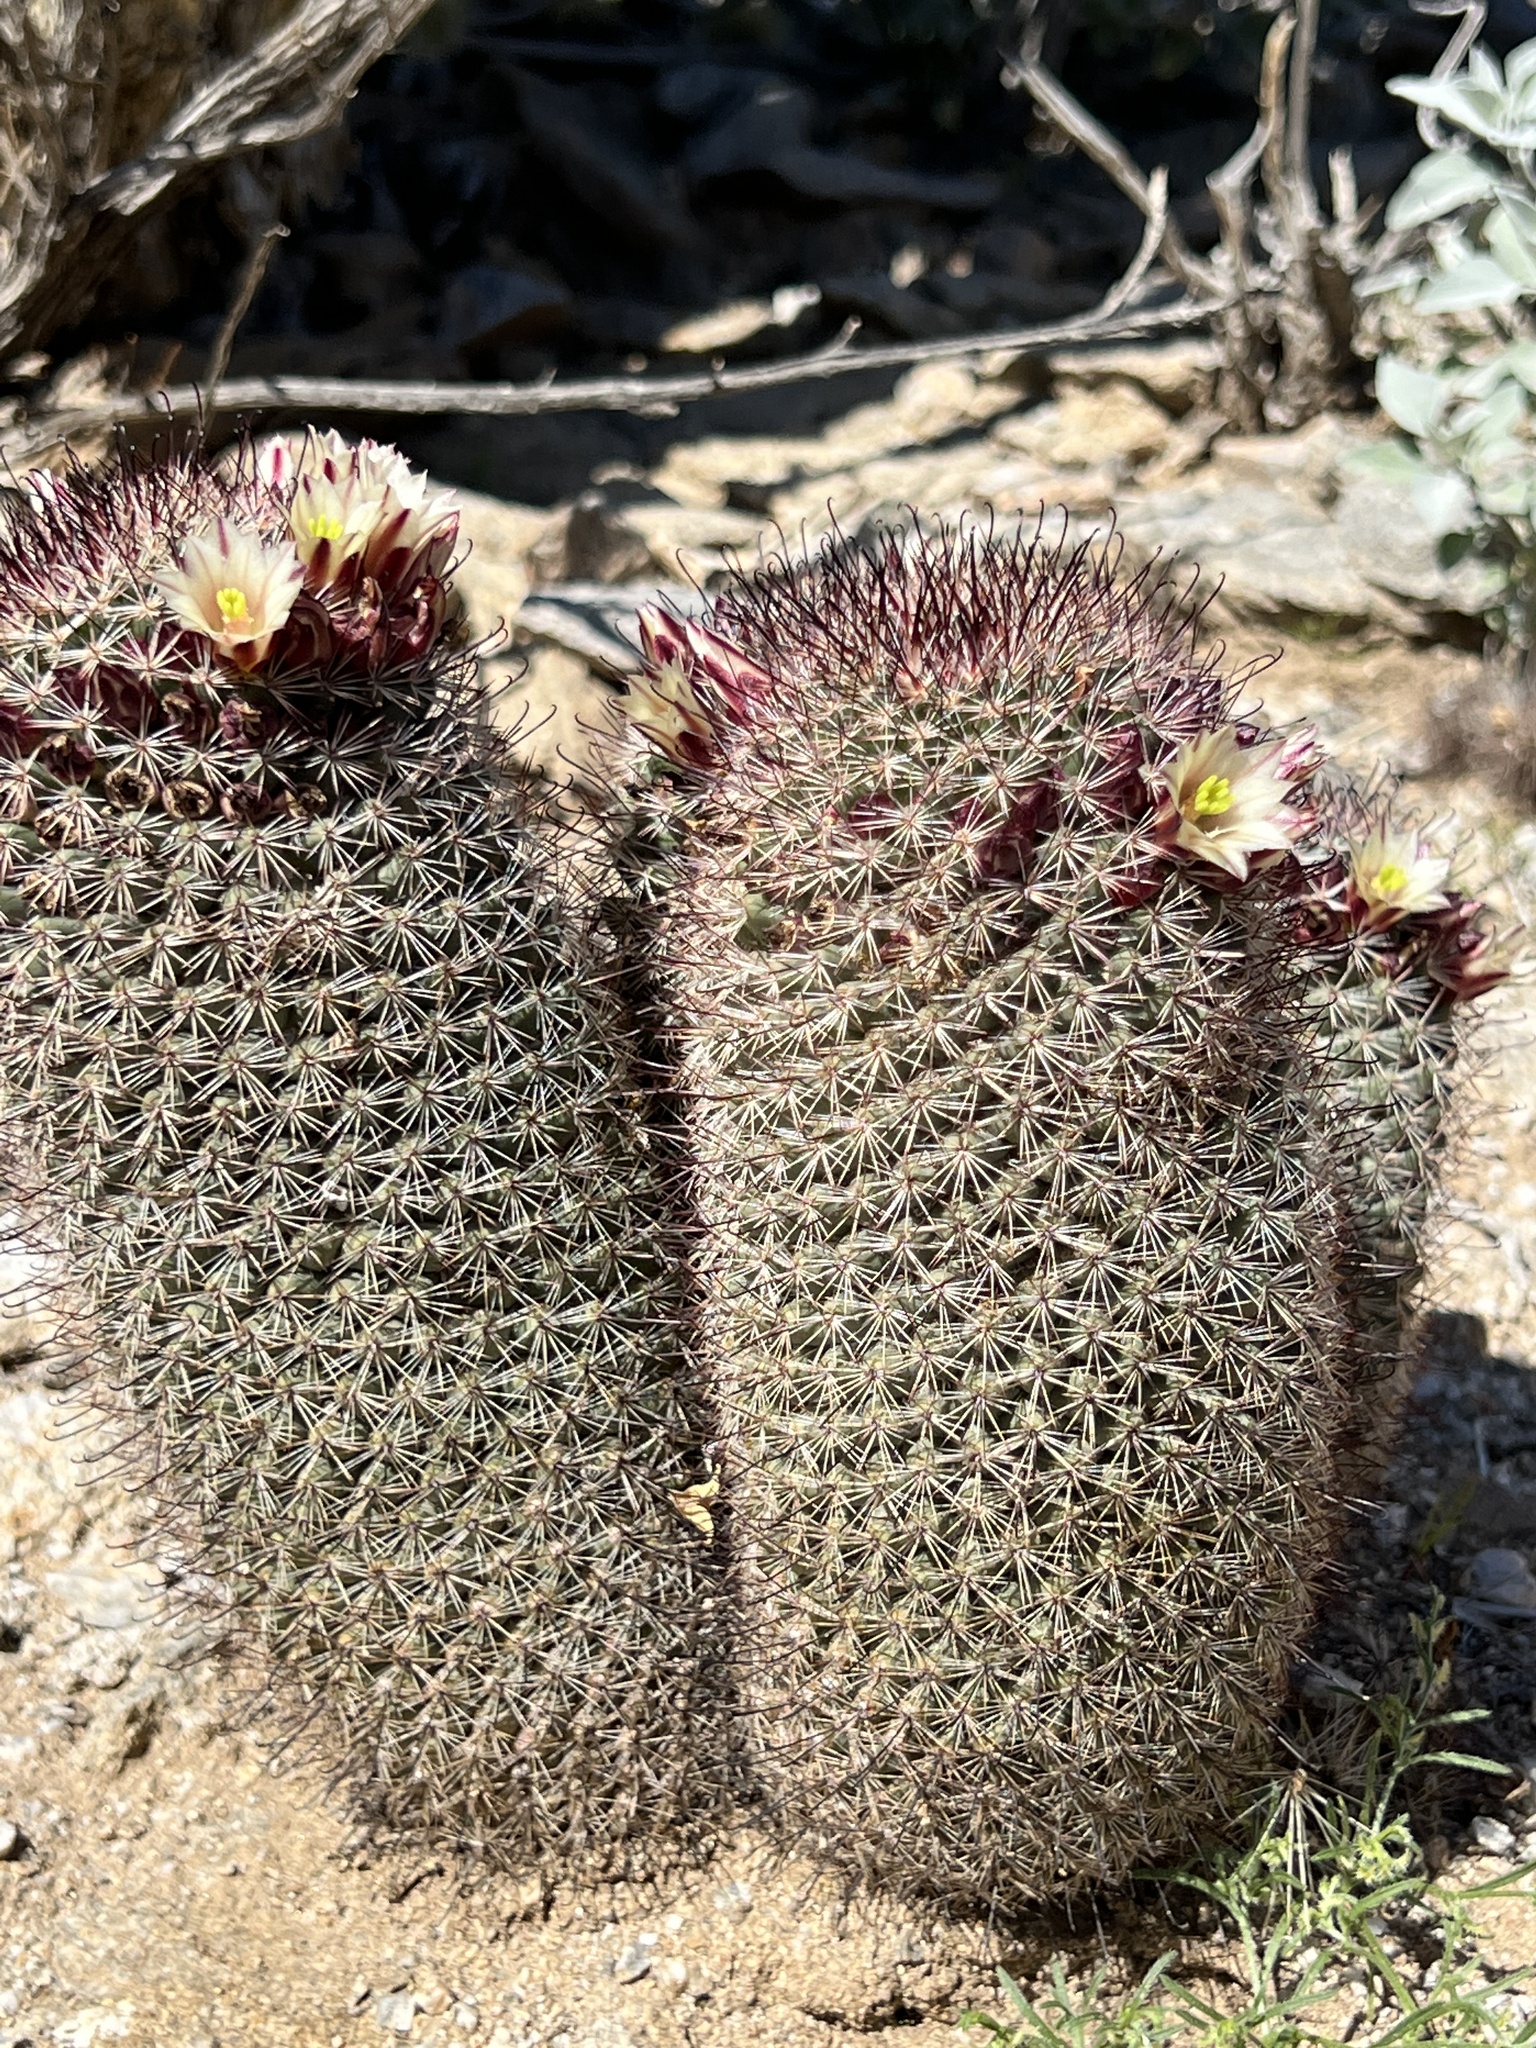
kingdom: Plantae
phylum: Tracheophyta
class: Magnoliopsida
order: Caryophyllales
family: Cactaceae
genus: Cochemiea
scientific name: Cochemiea dioica
